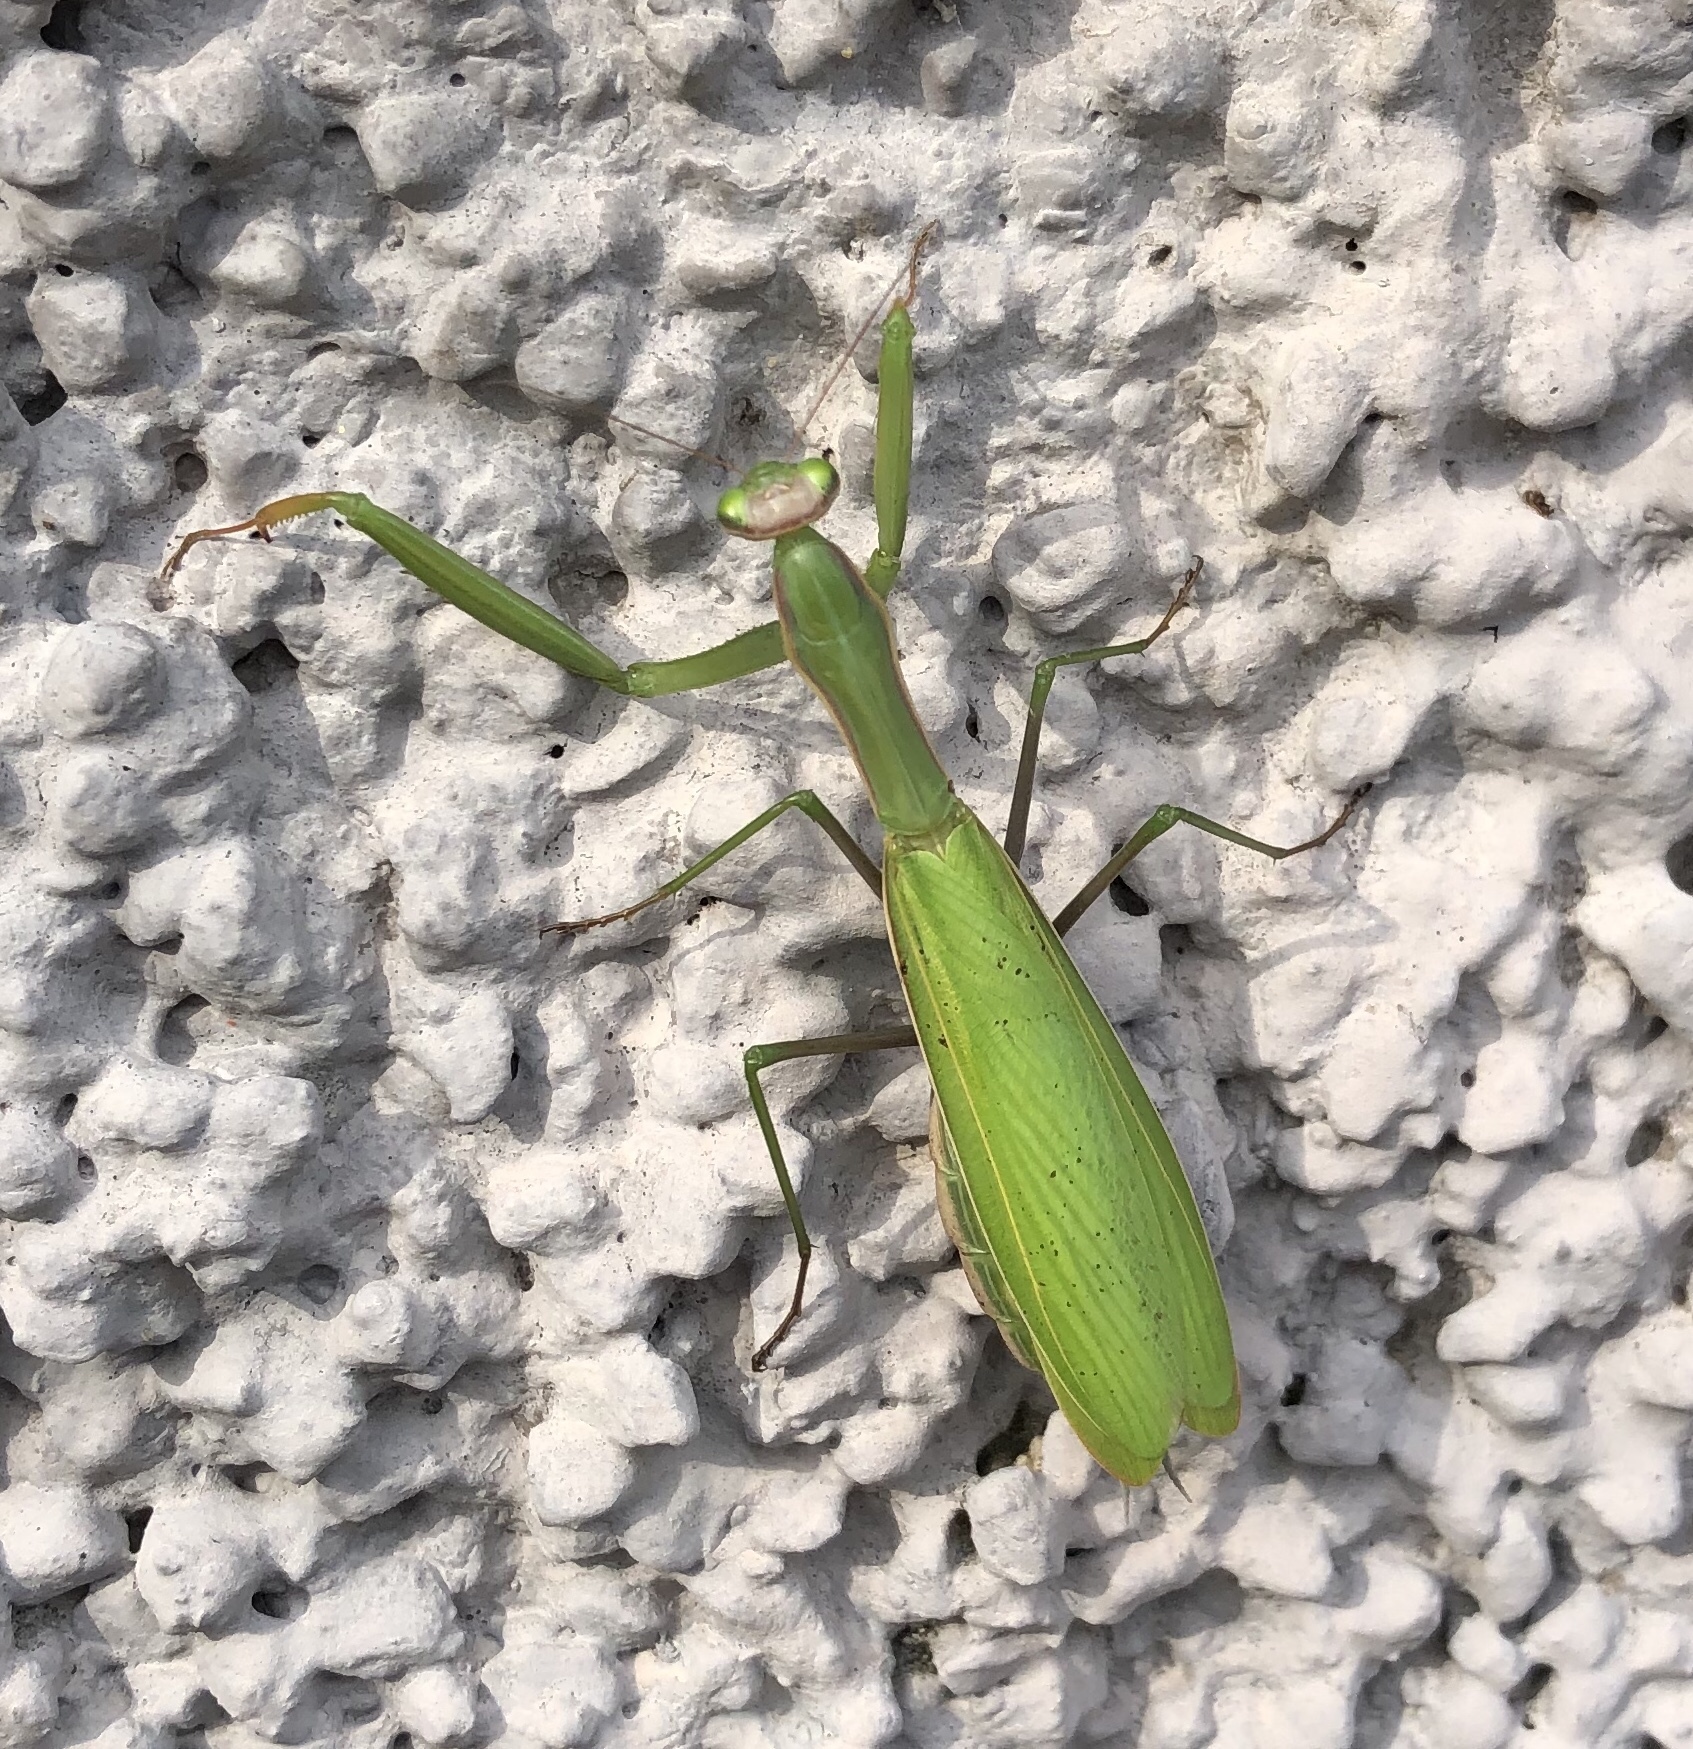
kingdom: Animalia
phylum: Arthropoda
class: Insecta
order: Mantodea
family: Mantidae
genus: Mantis
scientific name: Mantis religiosa
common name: Praying mantis
